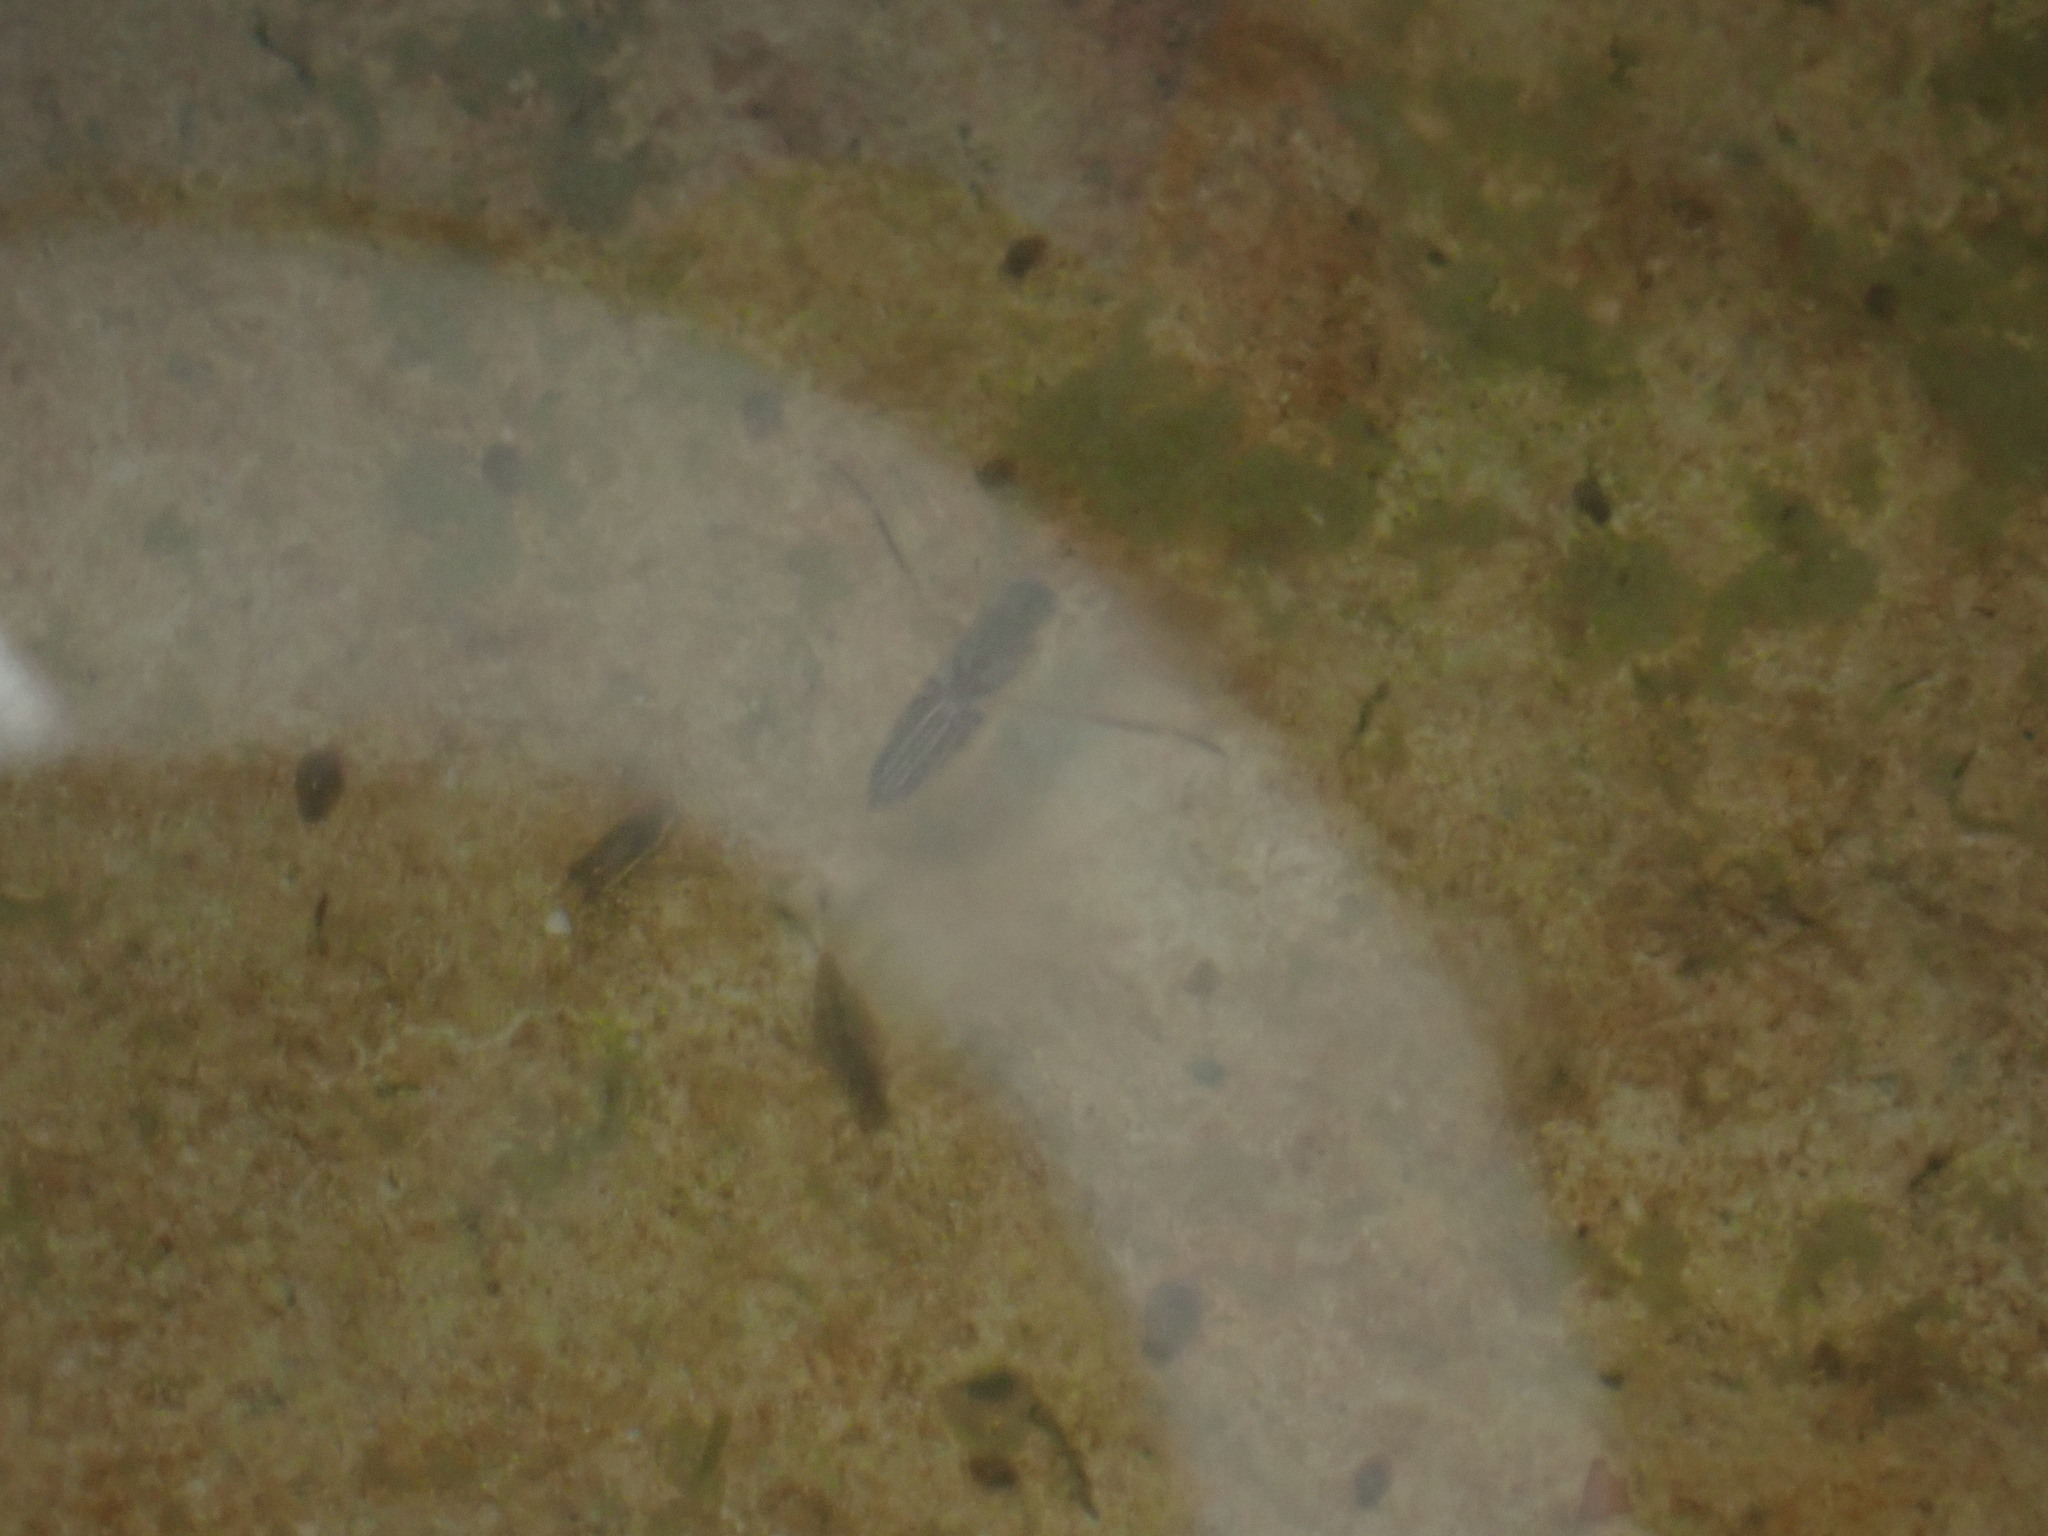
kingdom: Animalia
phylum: Arthropoda
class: Insecta
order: Hemiptera
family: Notonectidae
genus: Anisops
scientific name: Anisops sardeus
